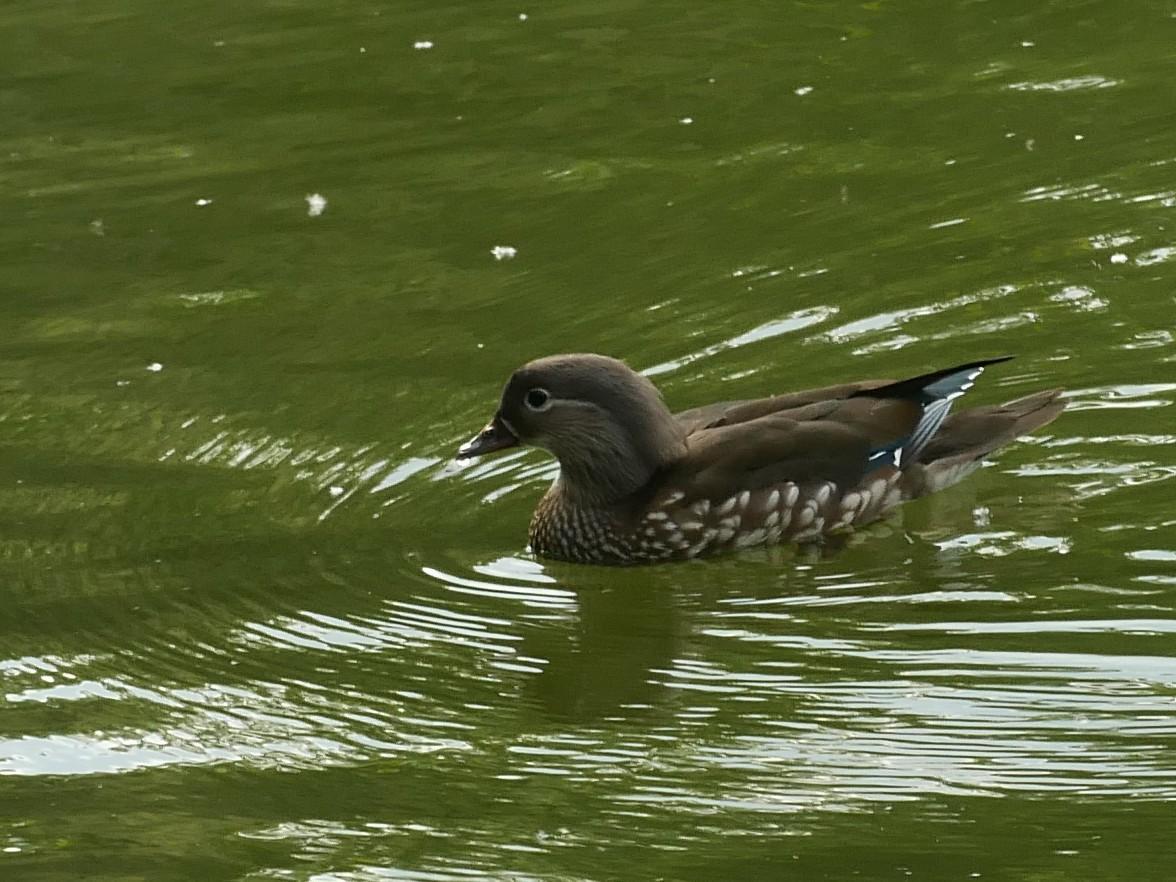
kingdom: Animalia
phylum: Chordata
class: Aves
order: Anseriformes
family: Anatidae
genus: Aix
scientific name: Aix galericulata
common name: Mandarin duck
